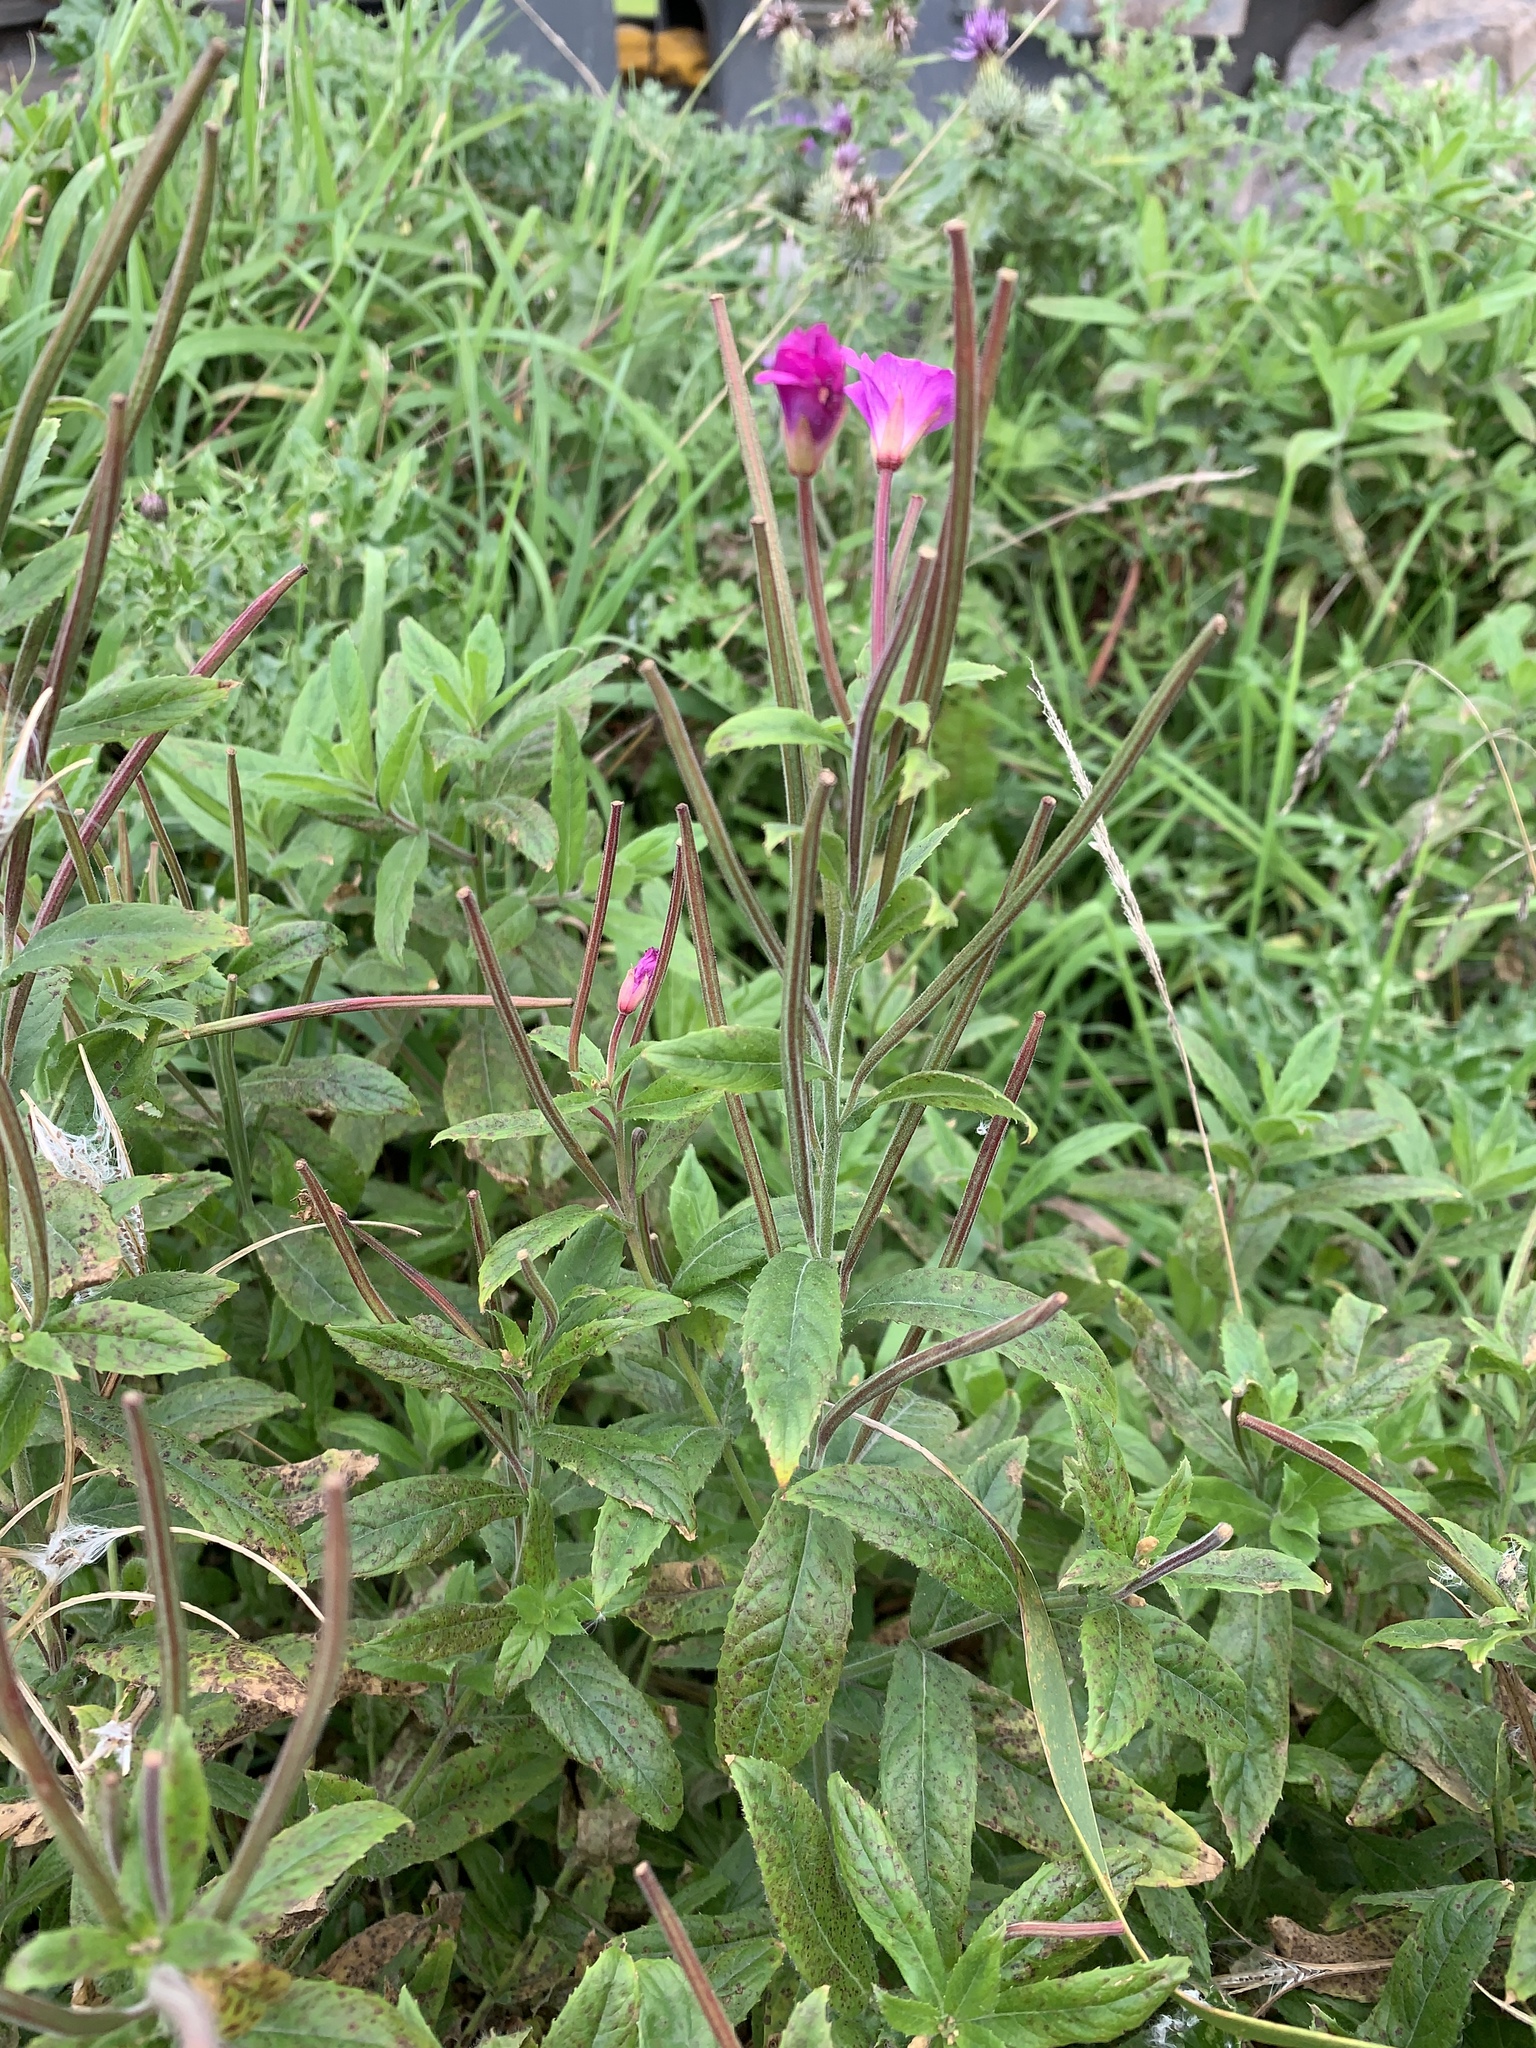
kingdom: Plantae
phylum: Tracheophyta
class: Magnoliopsida
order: Myrtales
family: Onagraceae
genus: Epilobium
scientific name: Epilobium hirsutum
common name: Great willowherb
